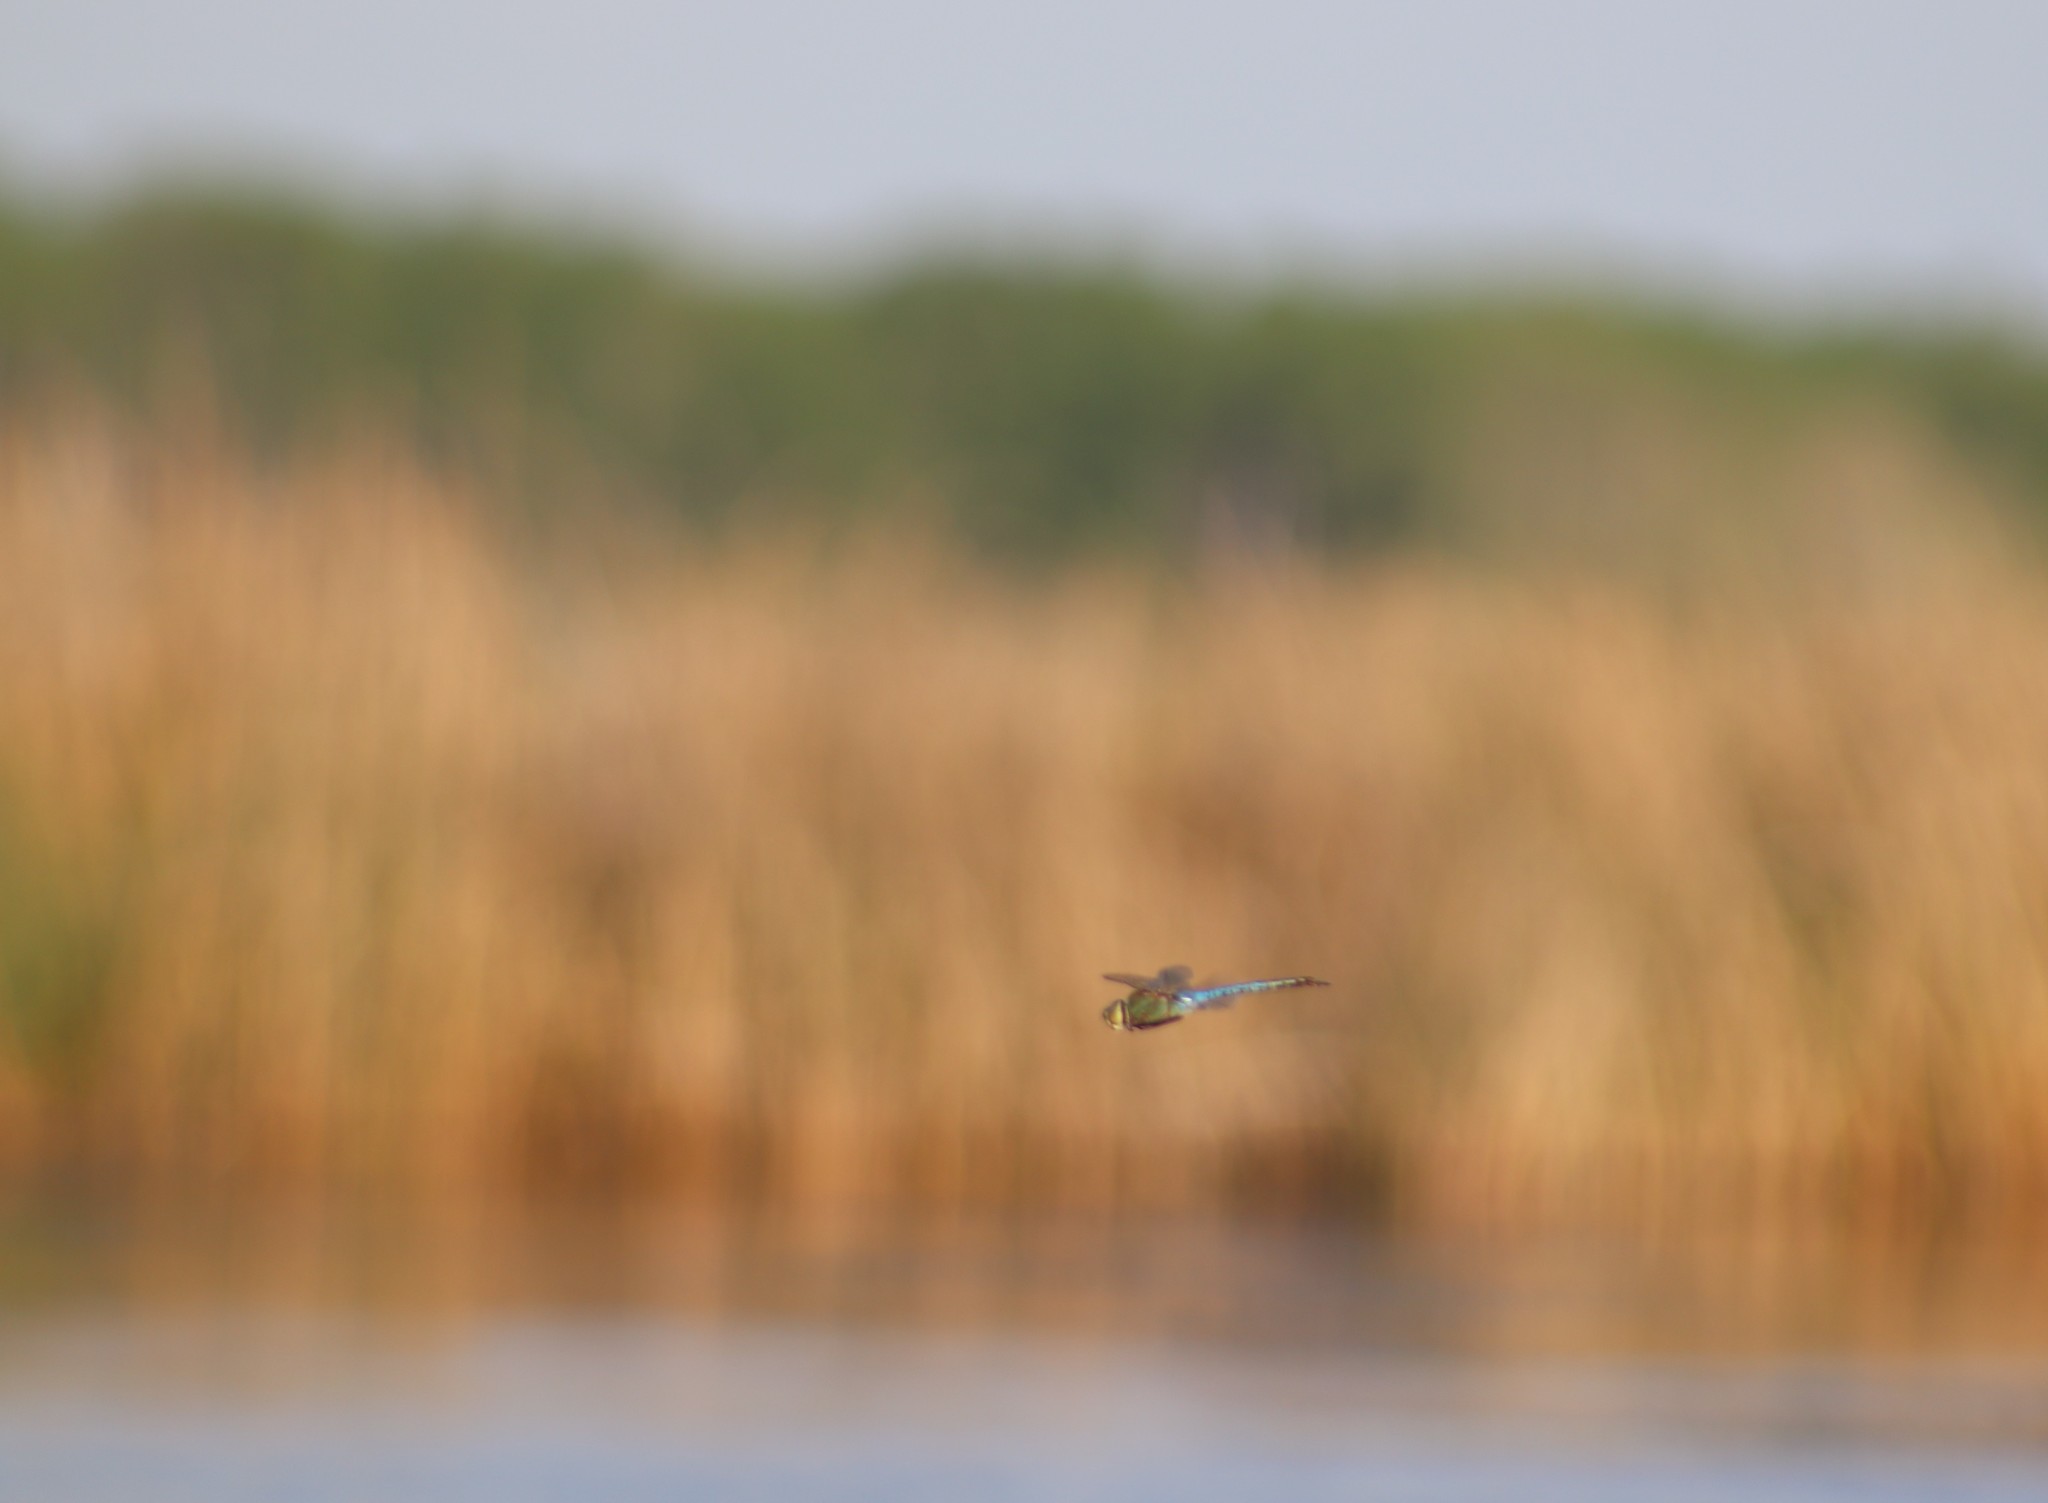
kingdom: Animalia
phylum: Arthropoda
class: Insecta
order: Odonata
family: Aeshnidae
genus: Anax
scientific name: Anax junius
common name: Common green darner
